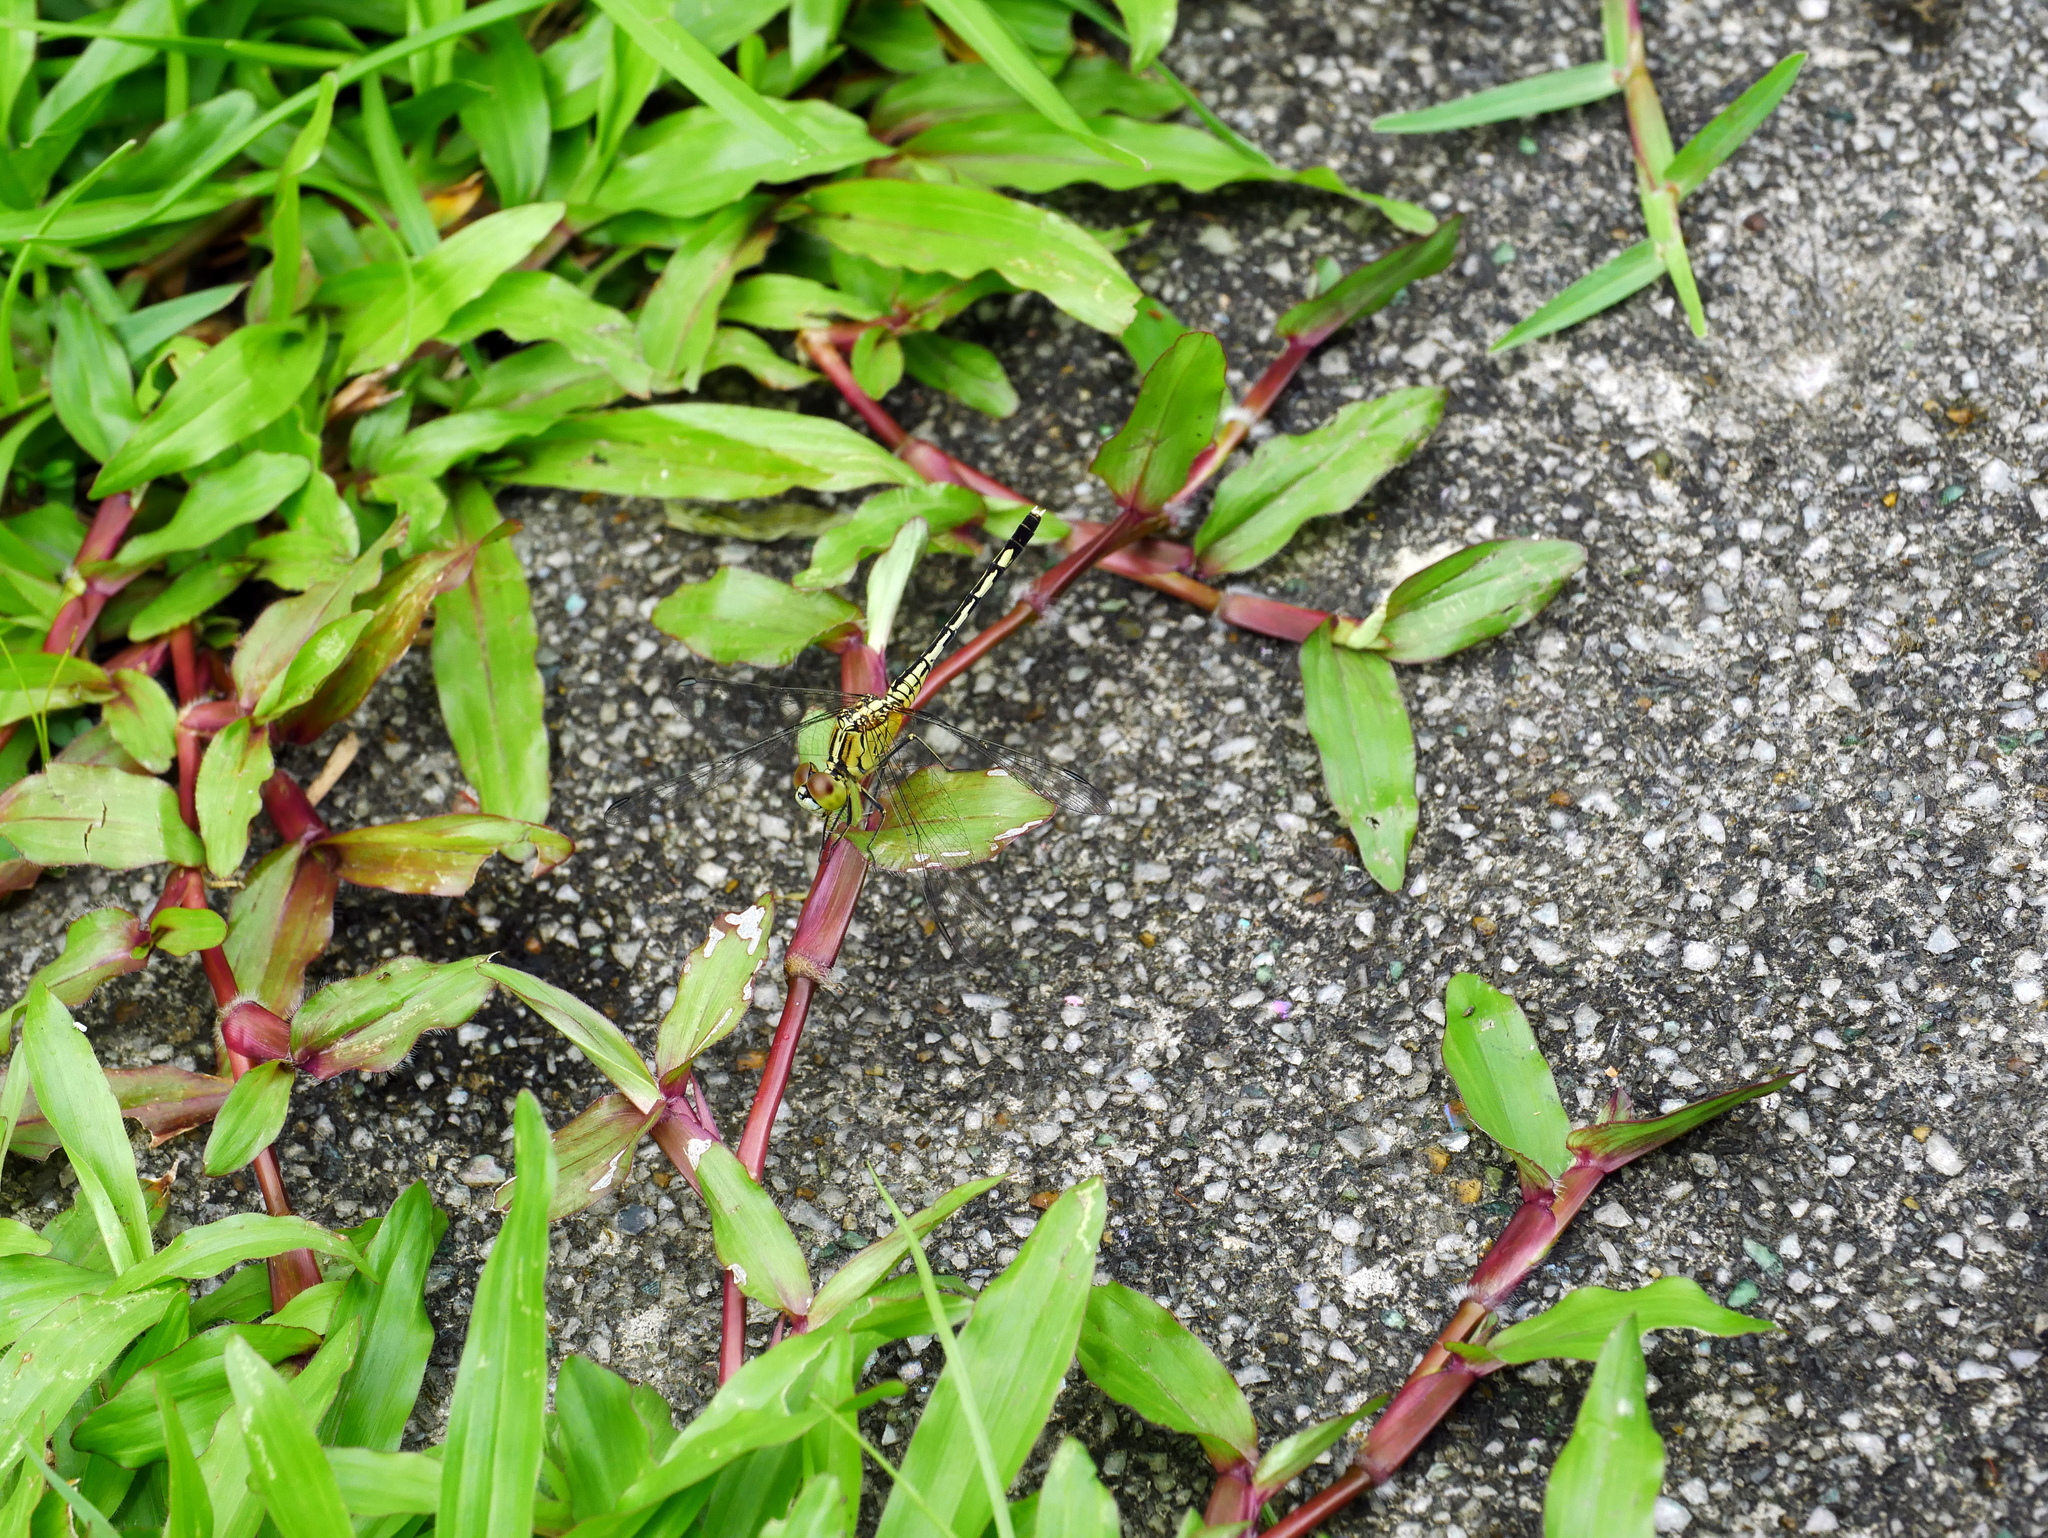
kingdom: Animalia
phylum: Arthropoda
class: Insecta
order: Odonata
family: Libellulidae
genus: Diplacodes
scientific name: Diplacodes trivialis
